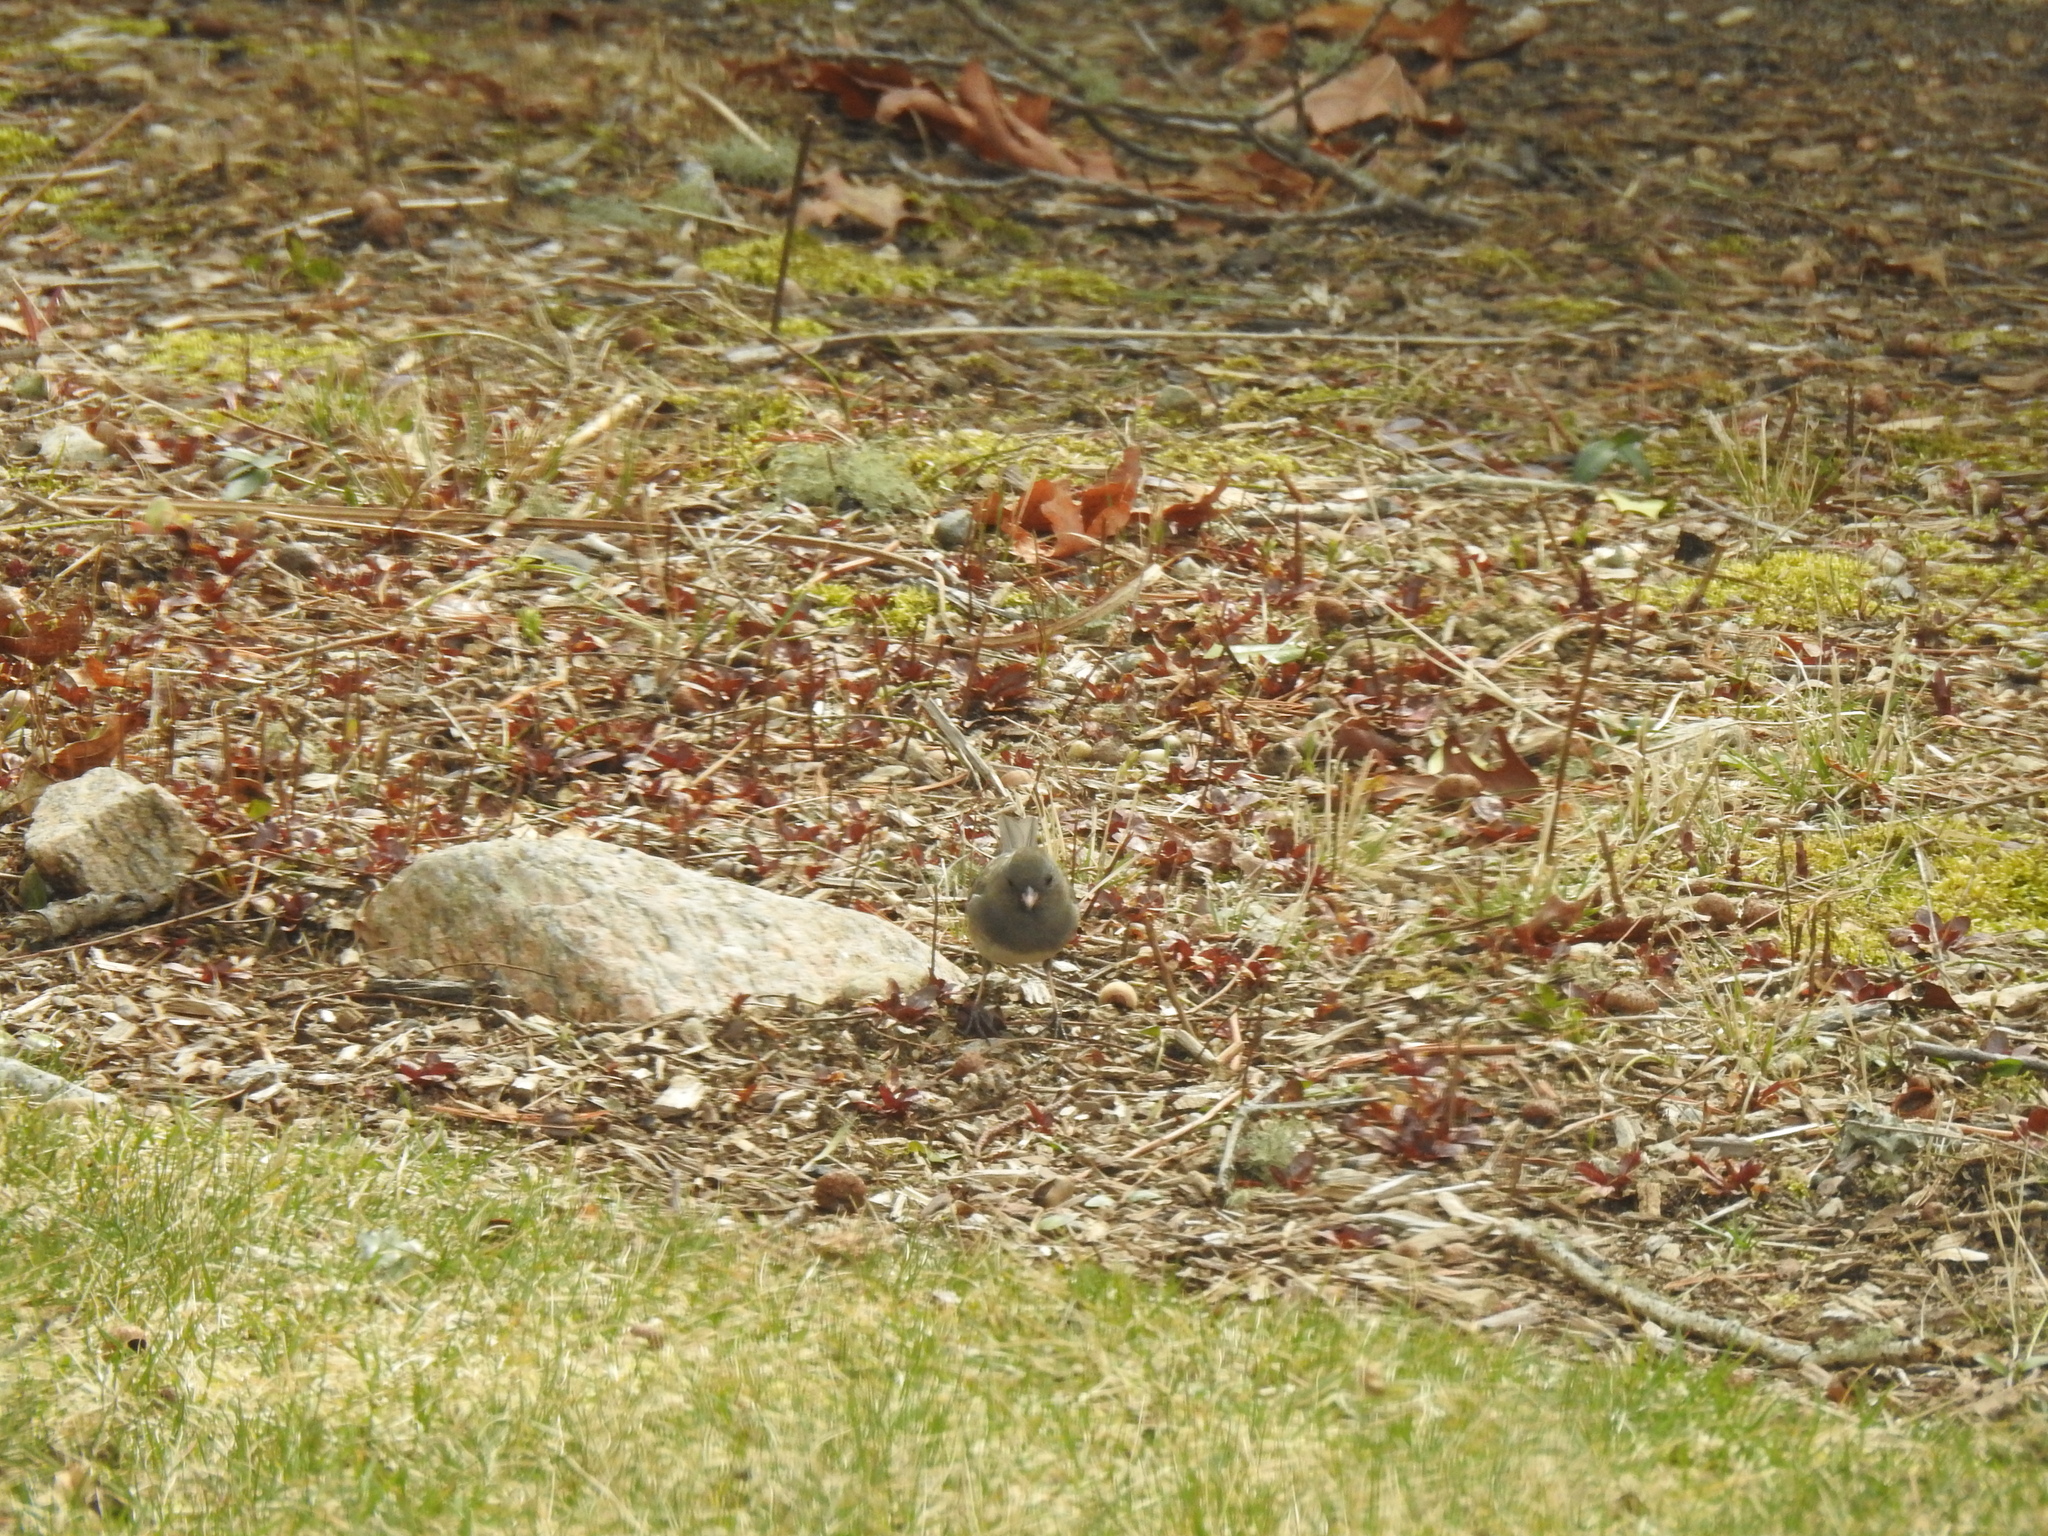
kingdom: Animalia
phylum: Chordata
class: Aves
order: Passeriformes
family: Passerellidae
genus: Junco
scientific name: Junco hyemalis
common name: Dark-eyed junco
